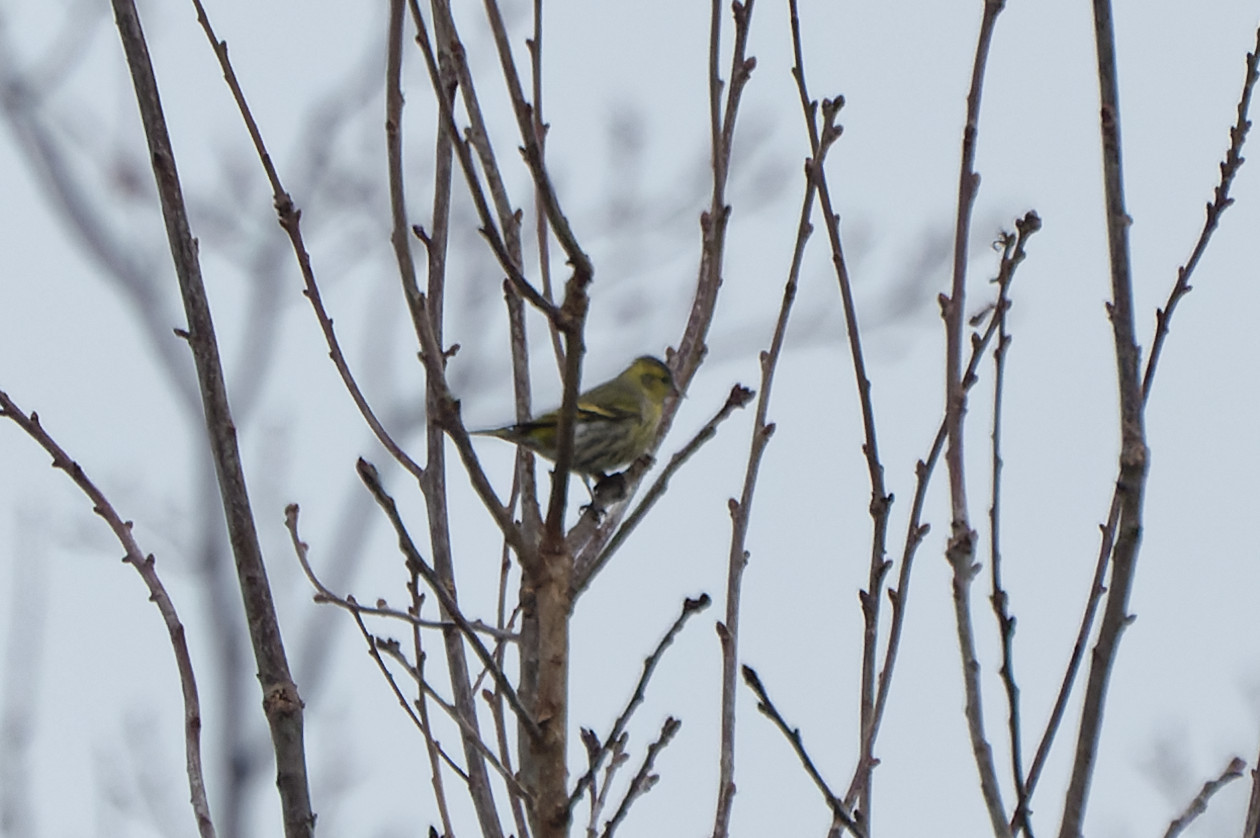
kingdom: Animalia
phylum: Chordata
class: Aves
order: Passeriformes
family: Fringillidae
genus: Spinus
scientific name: Spinus spinus
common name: Eurasian siskin
